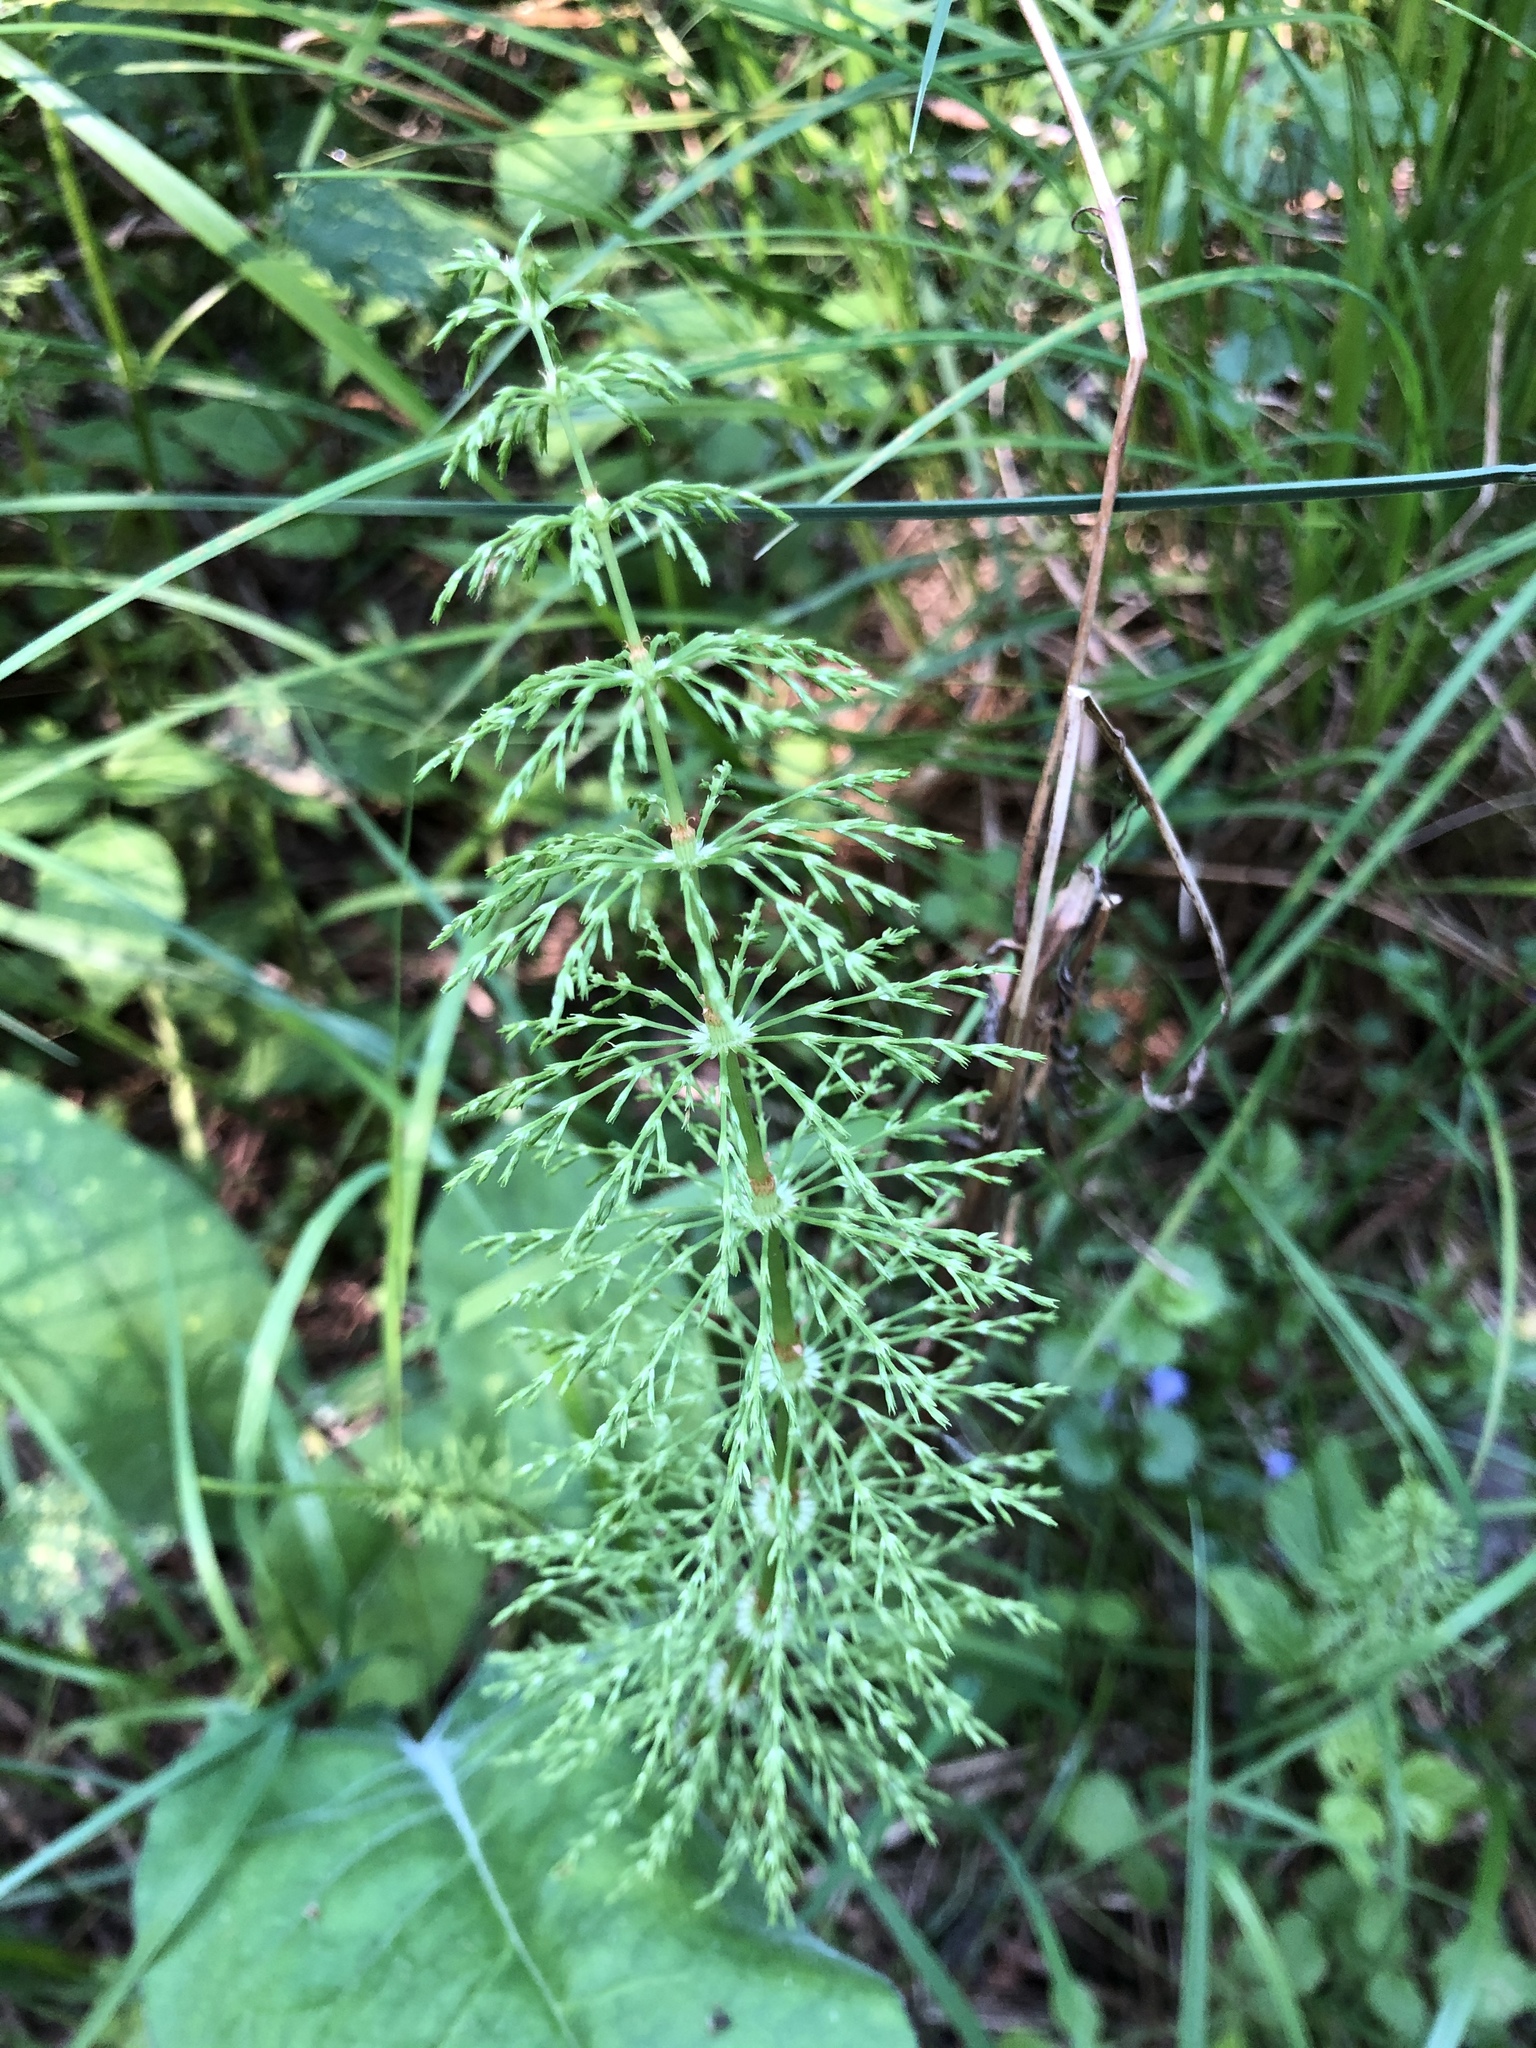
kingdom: Plantae
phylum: Tracheophyta
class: Polypodiopsida
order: Equisetales
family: Equisetaceae
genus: Equisetum
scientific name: Equisetum sylvaticum
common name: Wood horsetail
